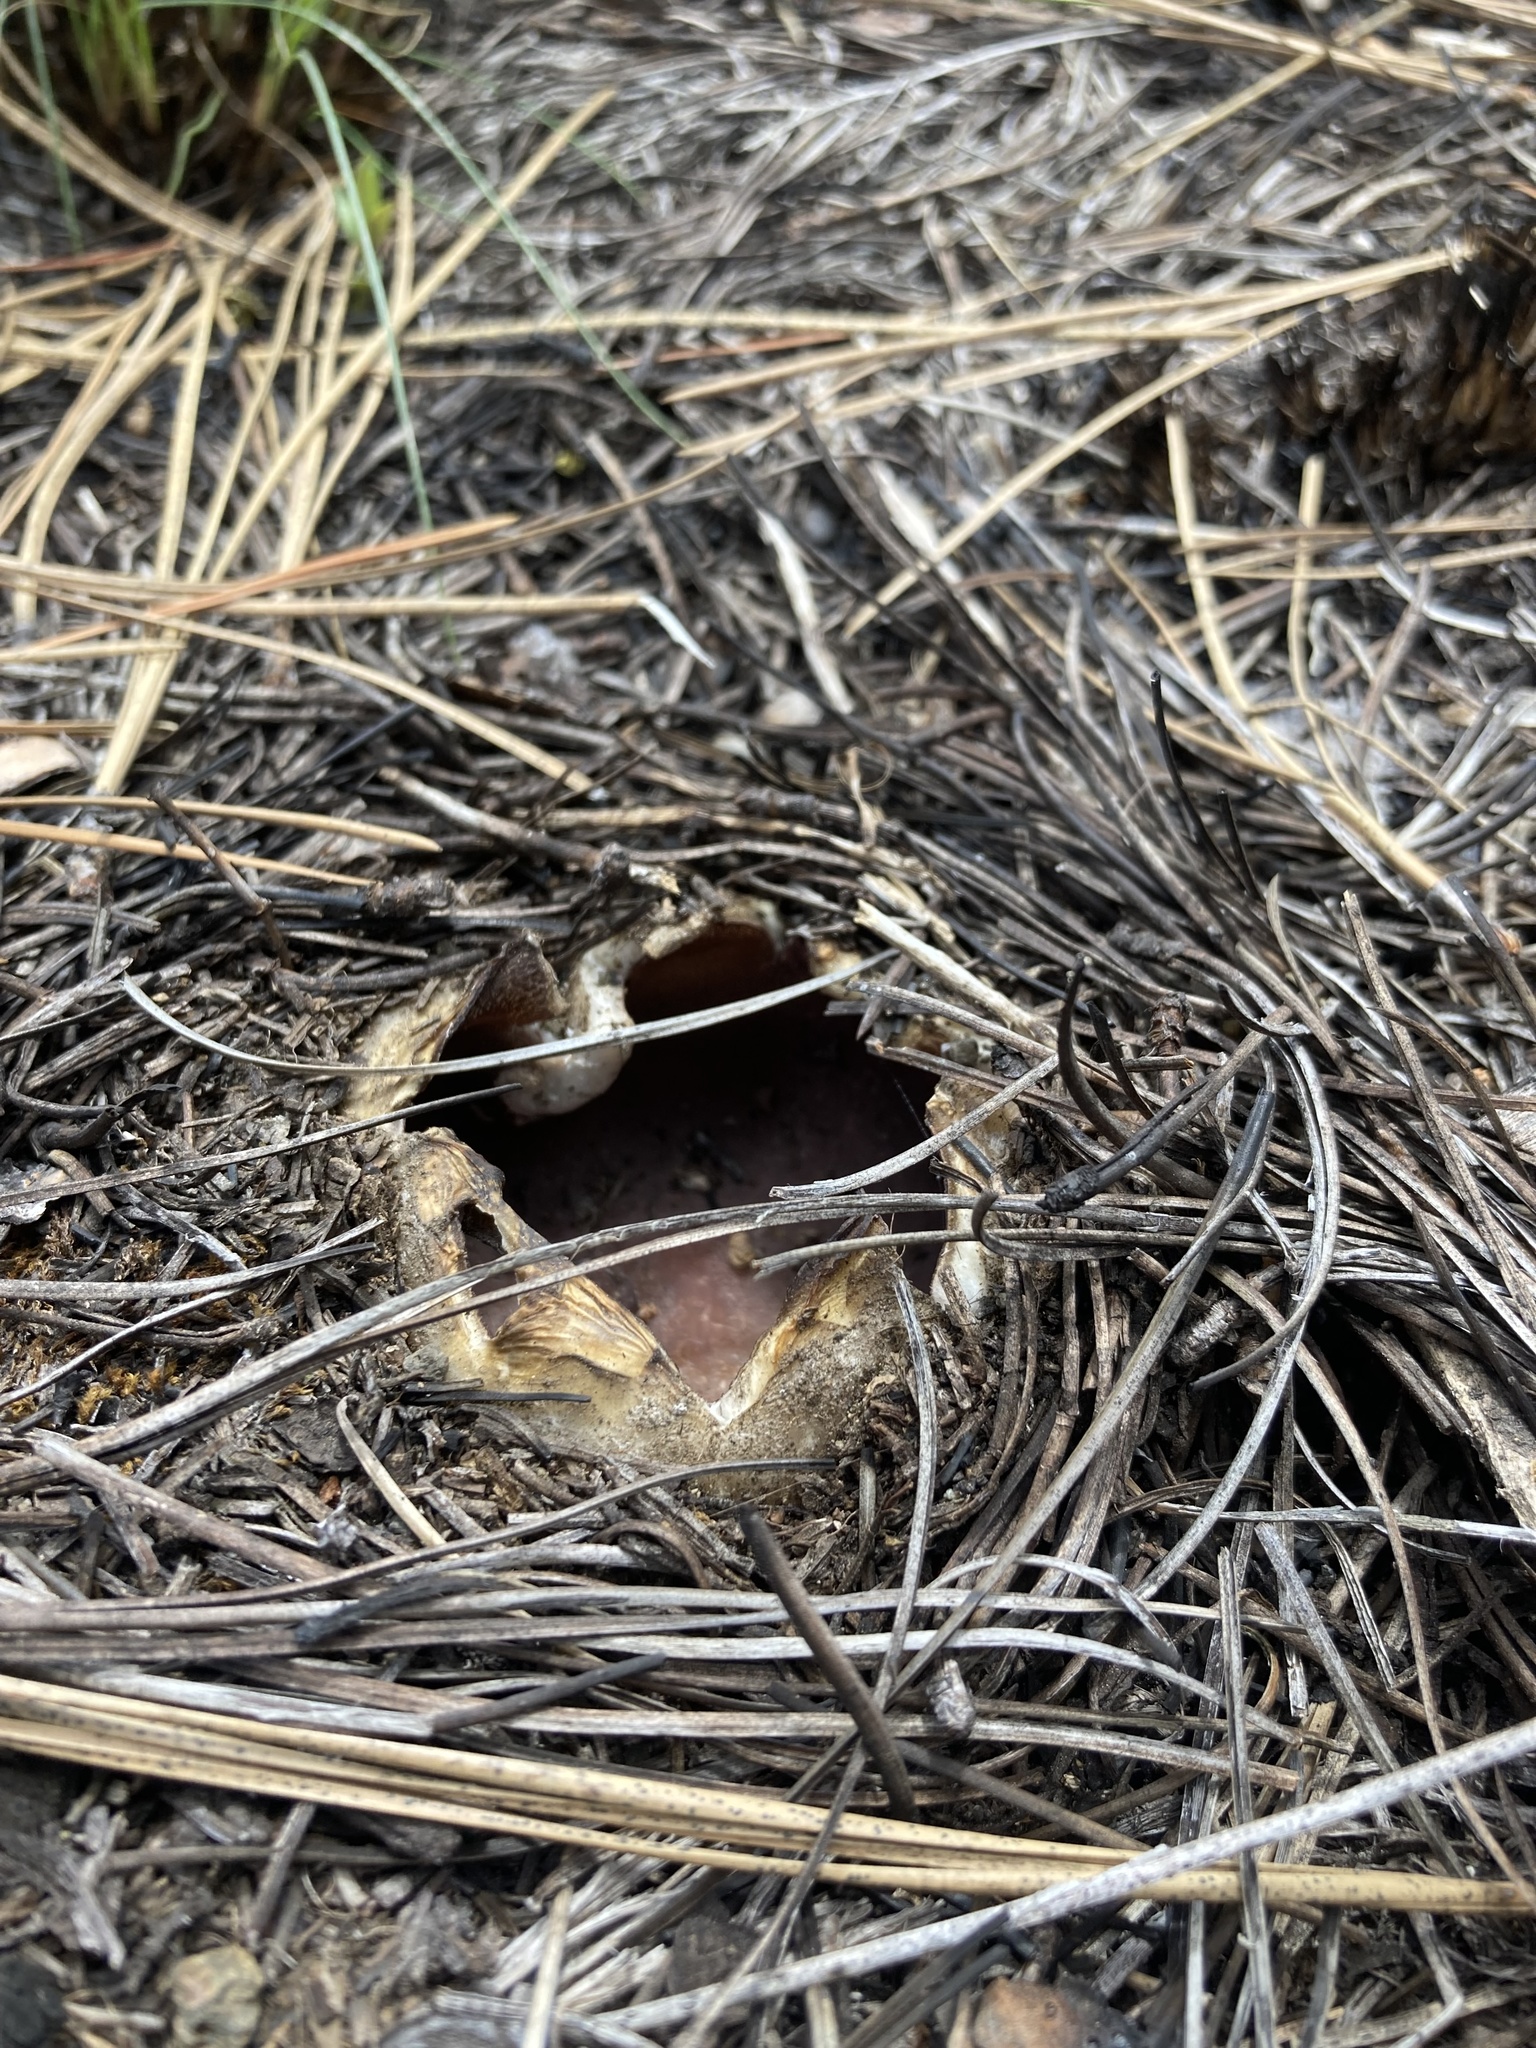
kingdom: Fungi
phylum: Ascomycota
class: Pezizomycetes
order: Pezizales
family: Pezizaceae
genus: Sarcosphaera
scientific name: Sarcosphaera coronaria
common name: Violet crowncup
